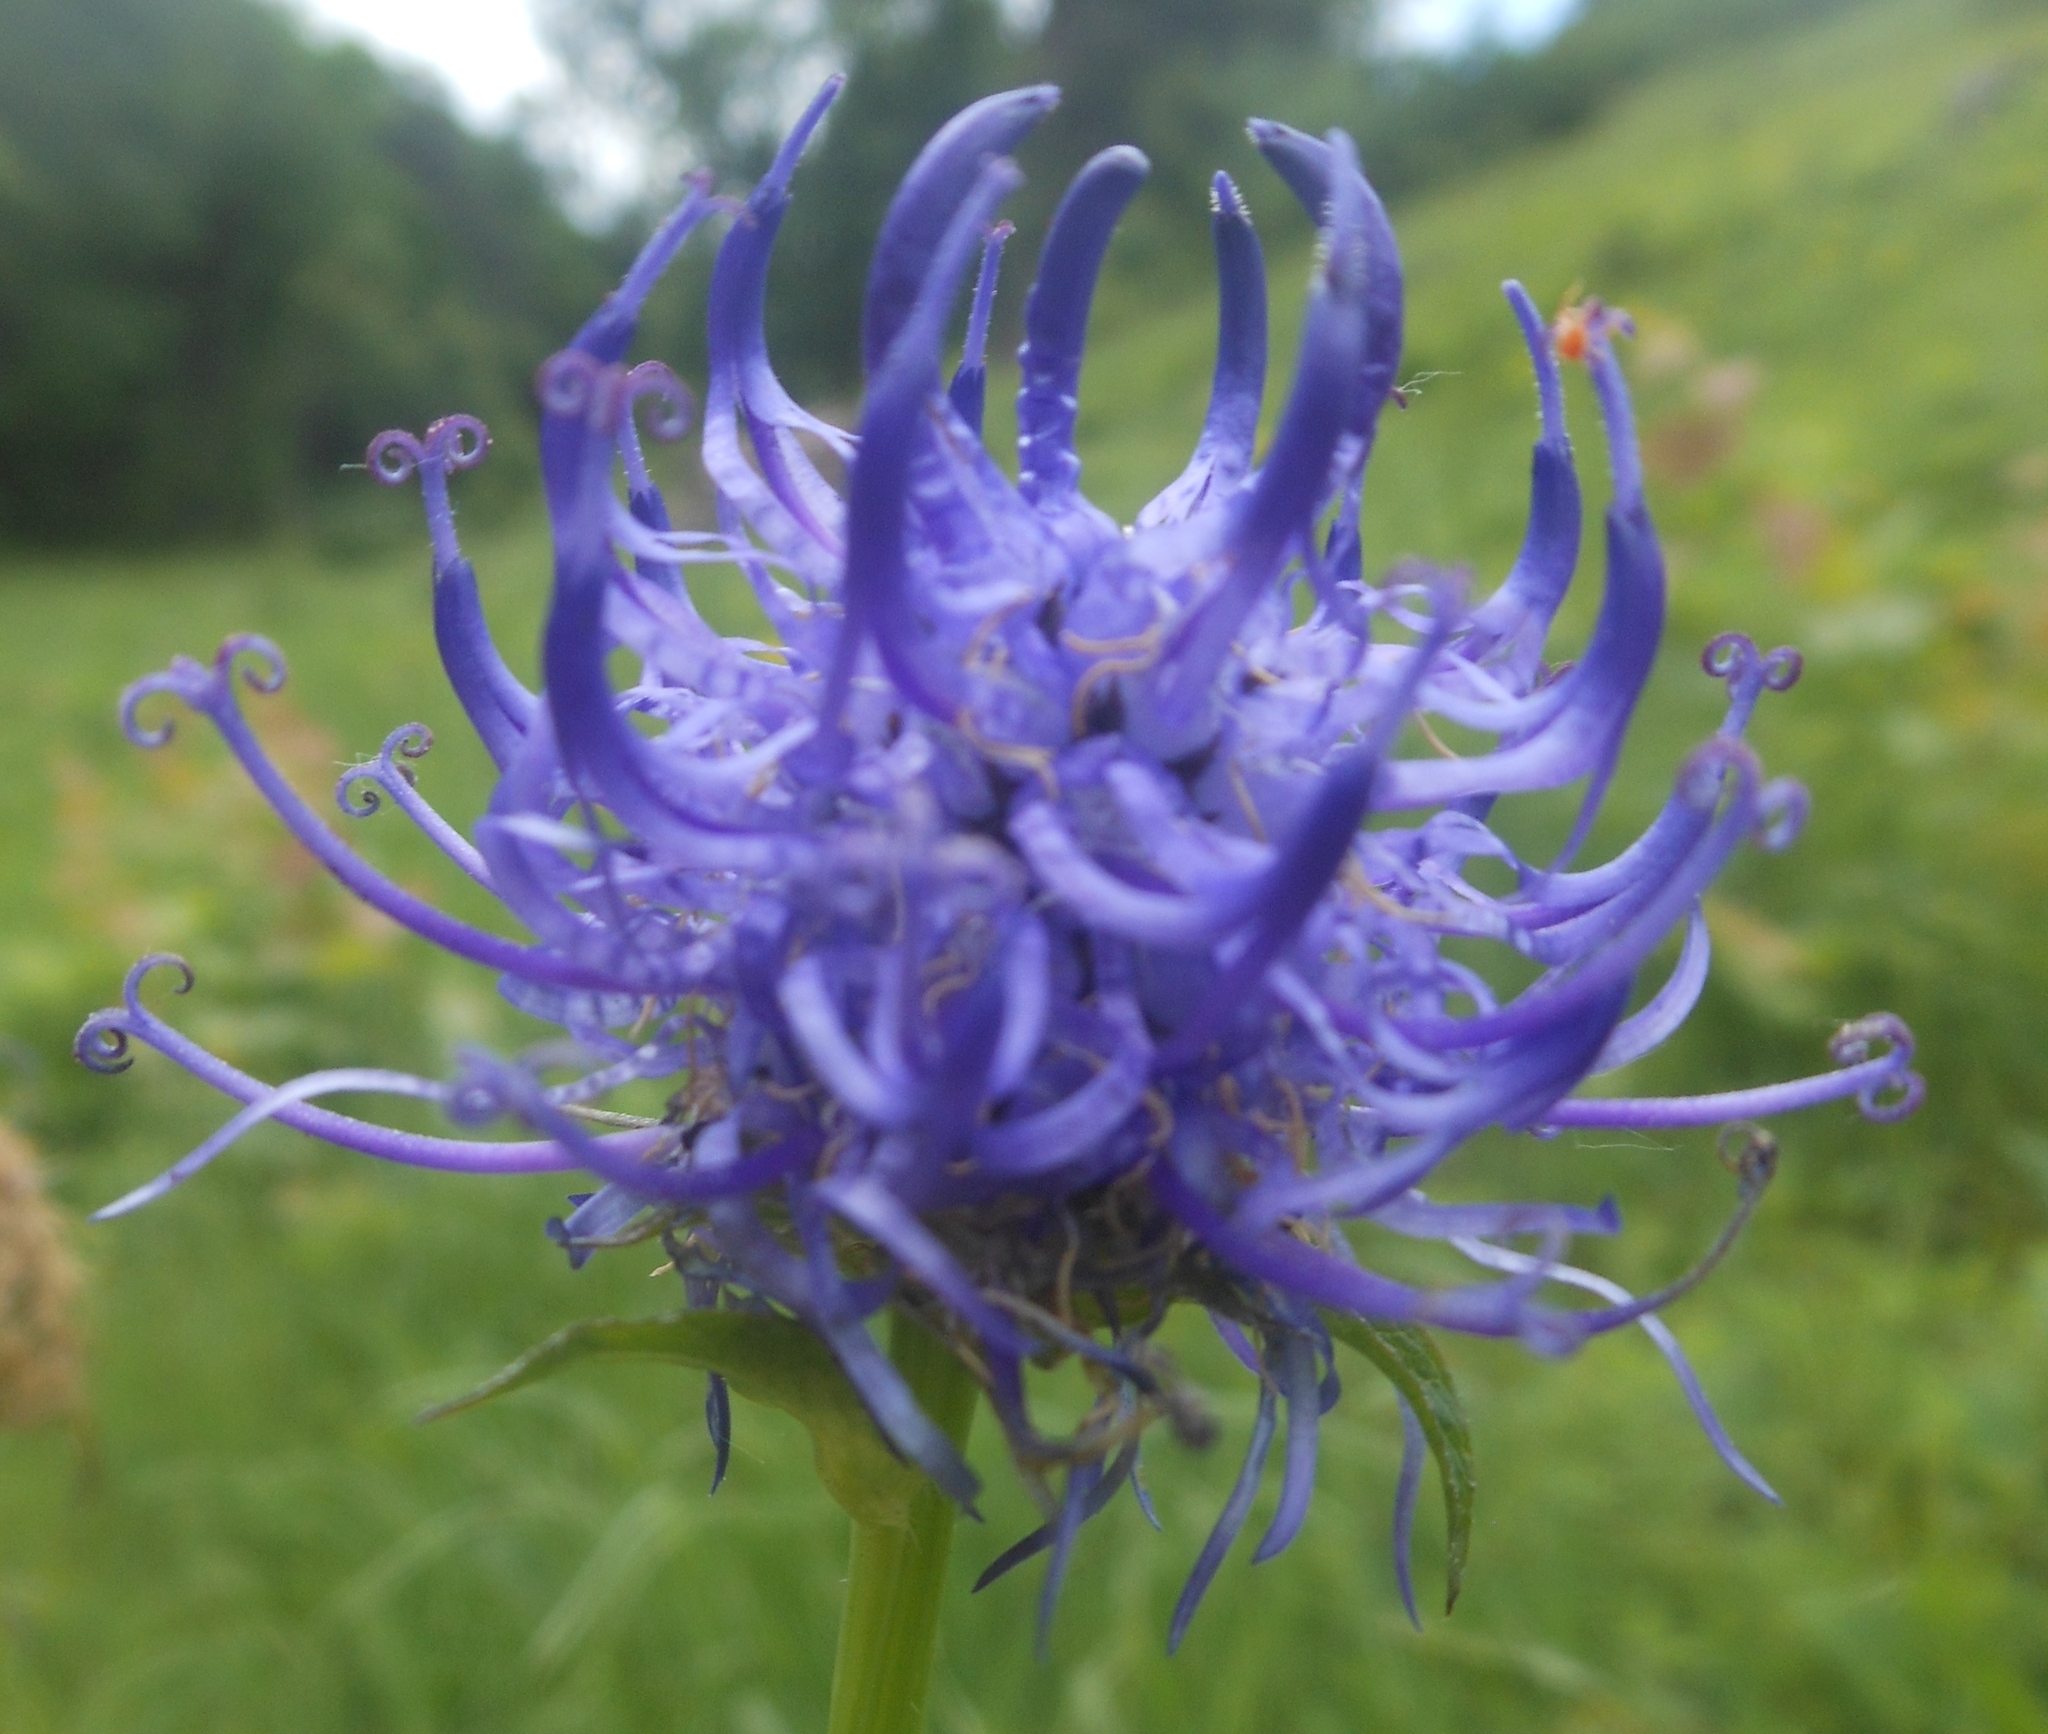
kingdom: Plantae
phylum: Tracheophyta
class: Magnoliopsida
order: Asterales
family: Campanulaceae
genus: Phyteuma
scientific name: Phyteuma orbiculare
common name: Round-headed rampion
